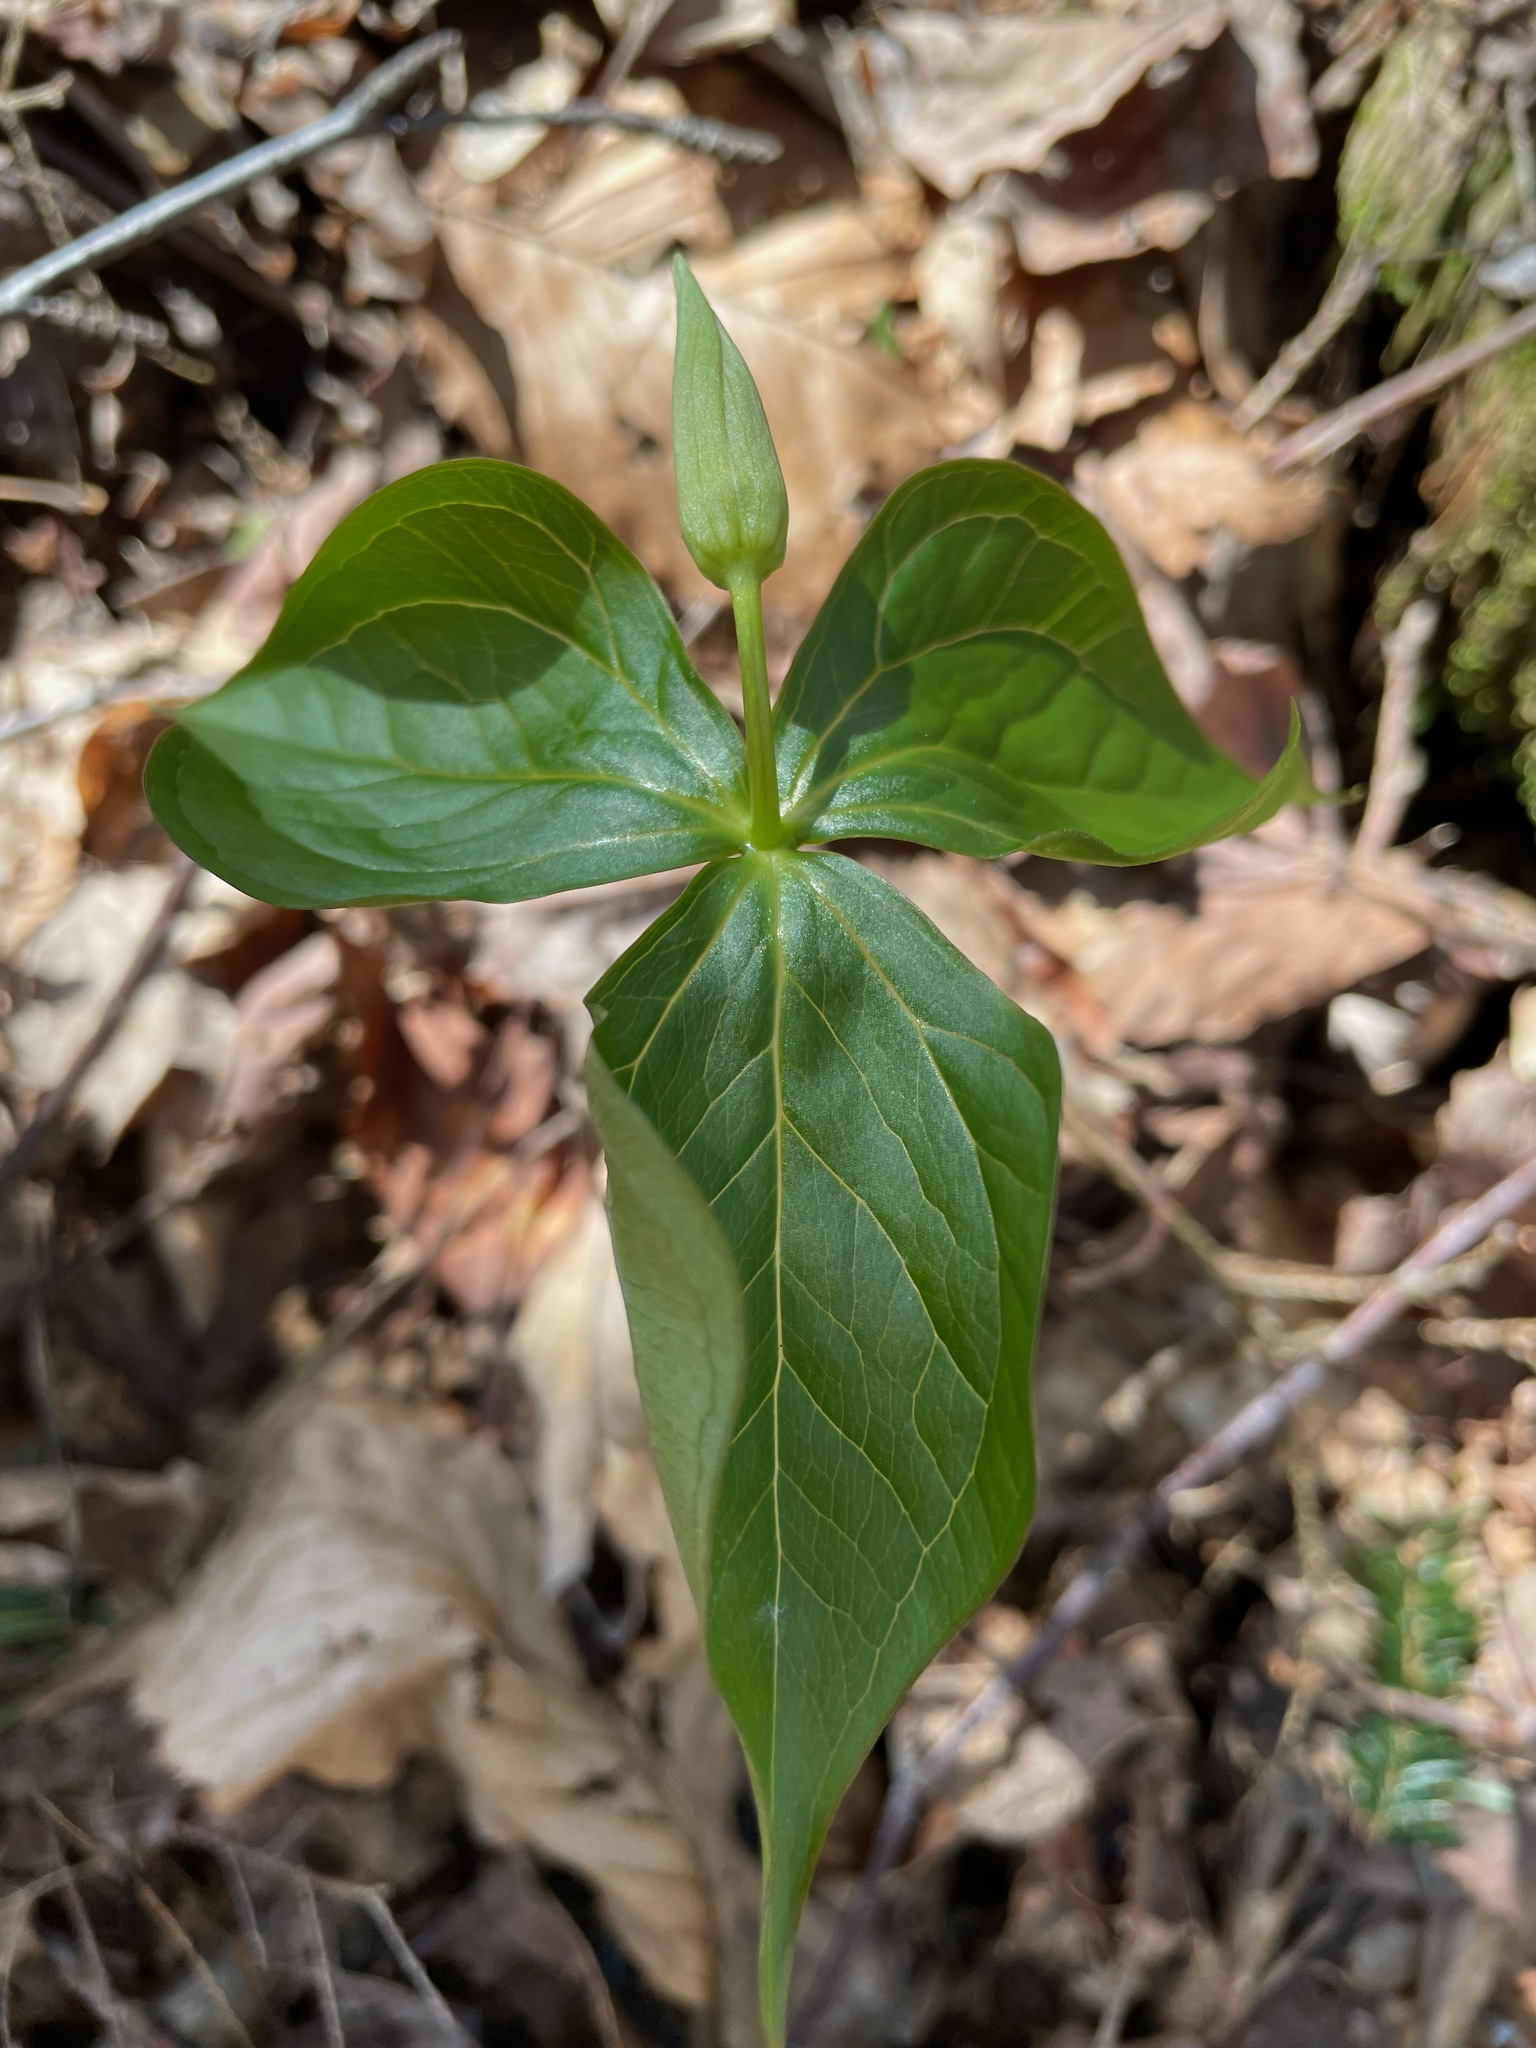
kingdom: Plantae
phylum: Tracheophyta
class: Liliopsida
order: Liliales
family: Melanthiaceae
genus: Trillium
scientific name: Trillium erectum
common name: Purple trillium
